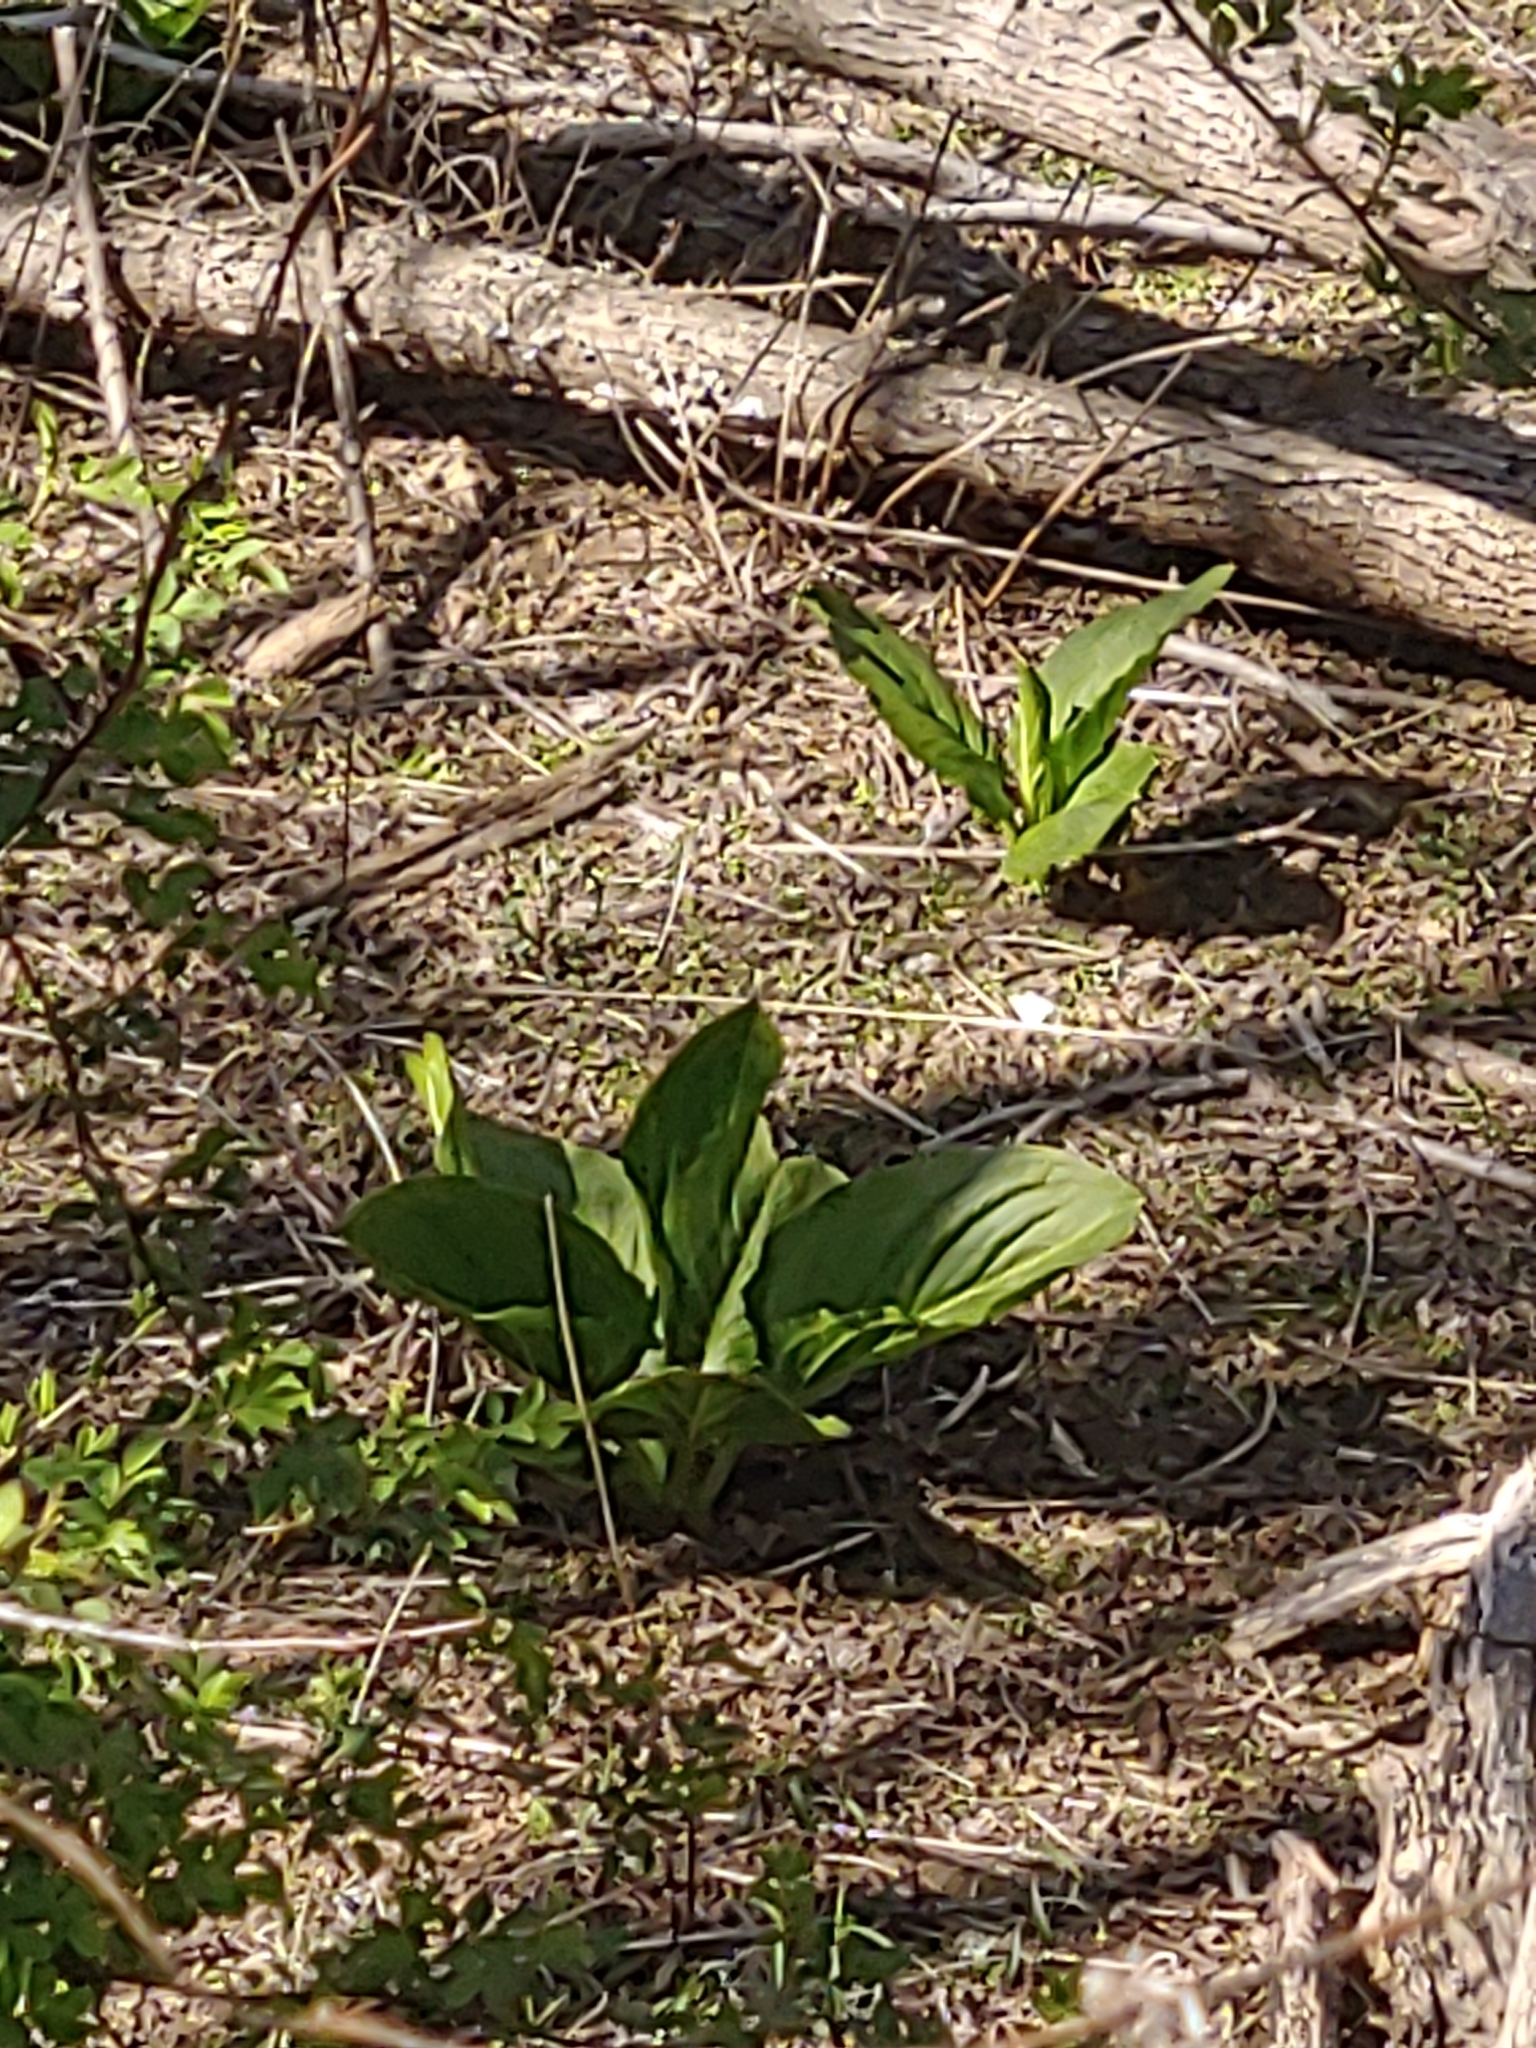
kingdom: Plantae
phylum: Tracheophyta
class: Liliopsida
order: Alismatales
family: Araceae
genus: Symplocarpus
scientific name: Symplocarpus foetidus
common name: Eastern skunk cabbage
